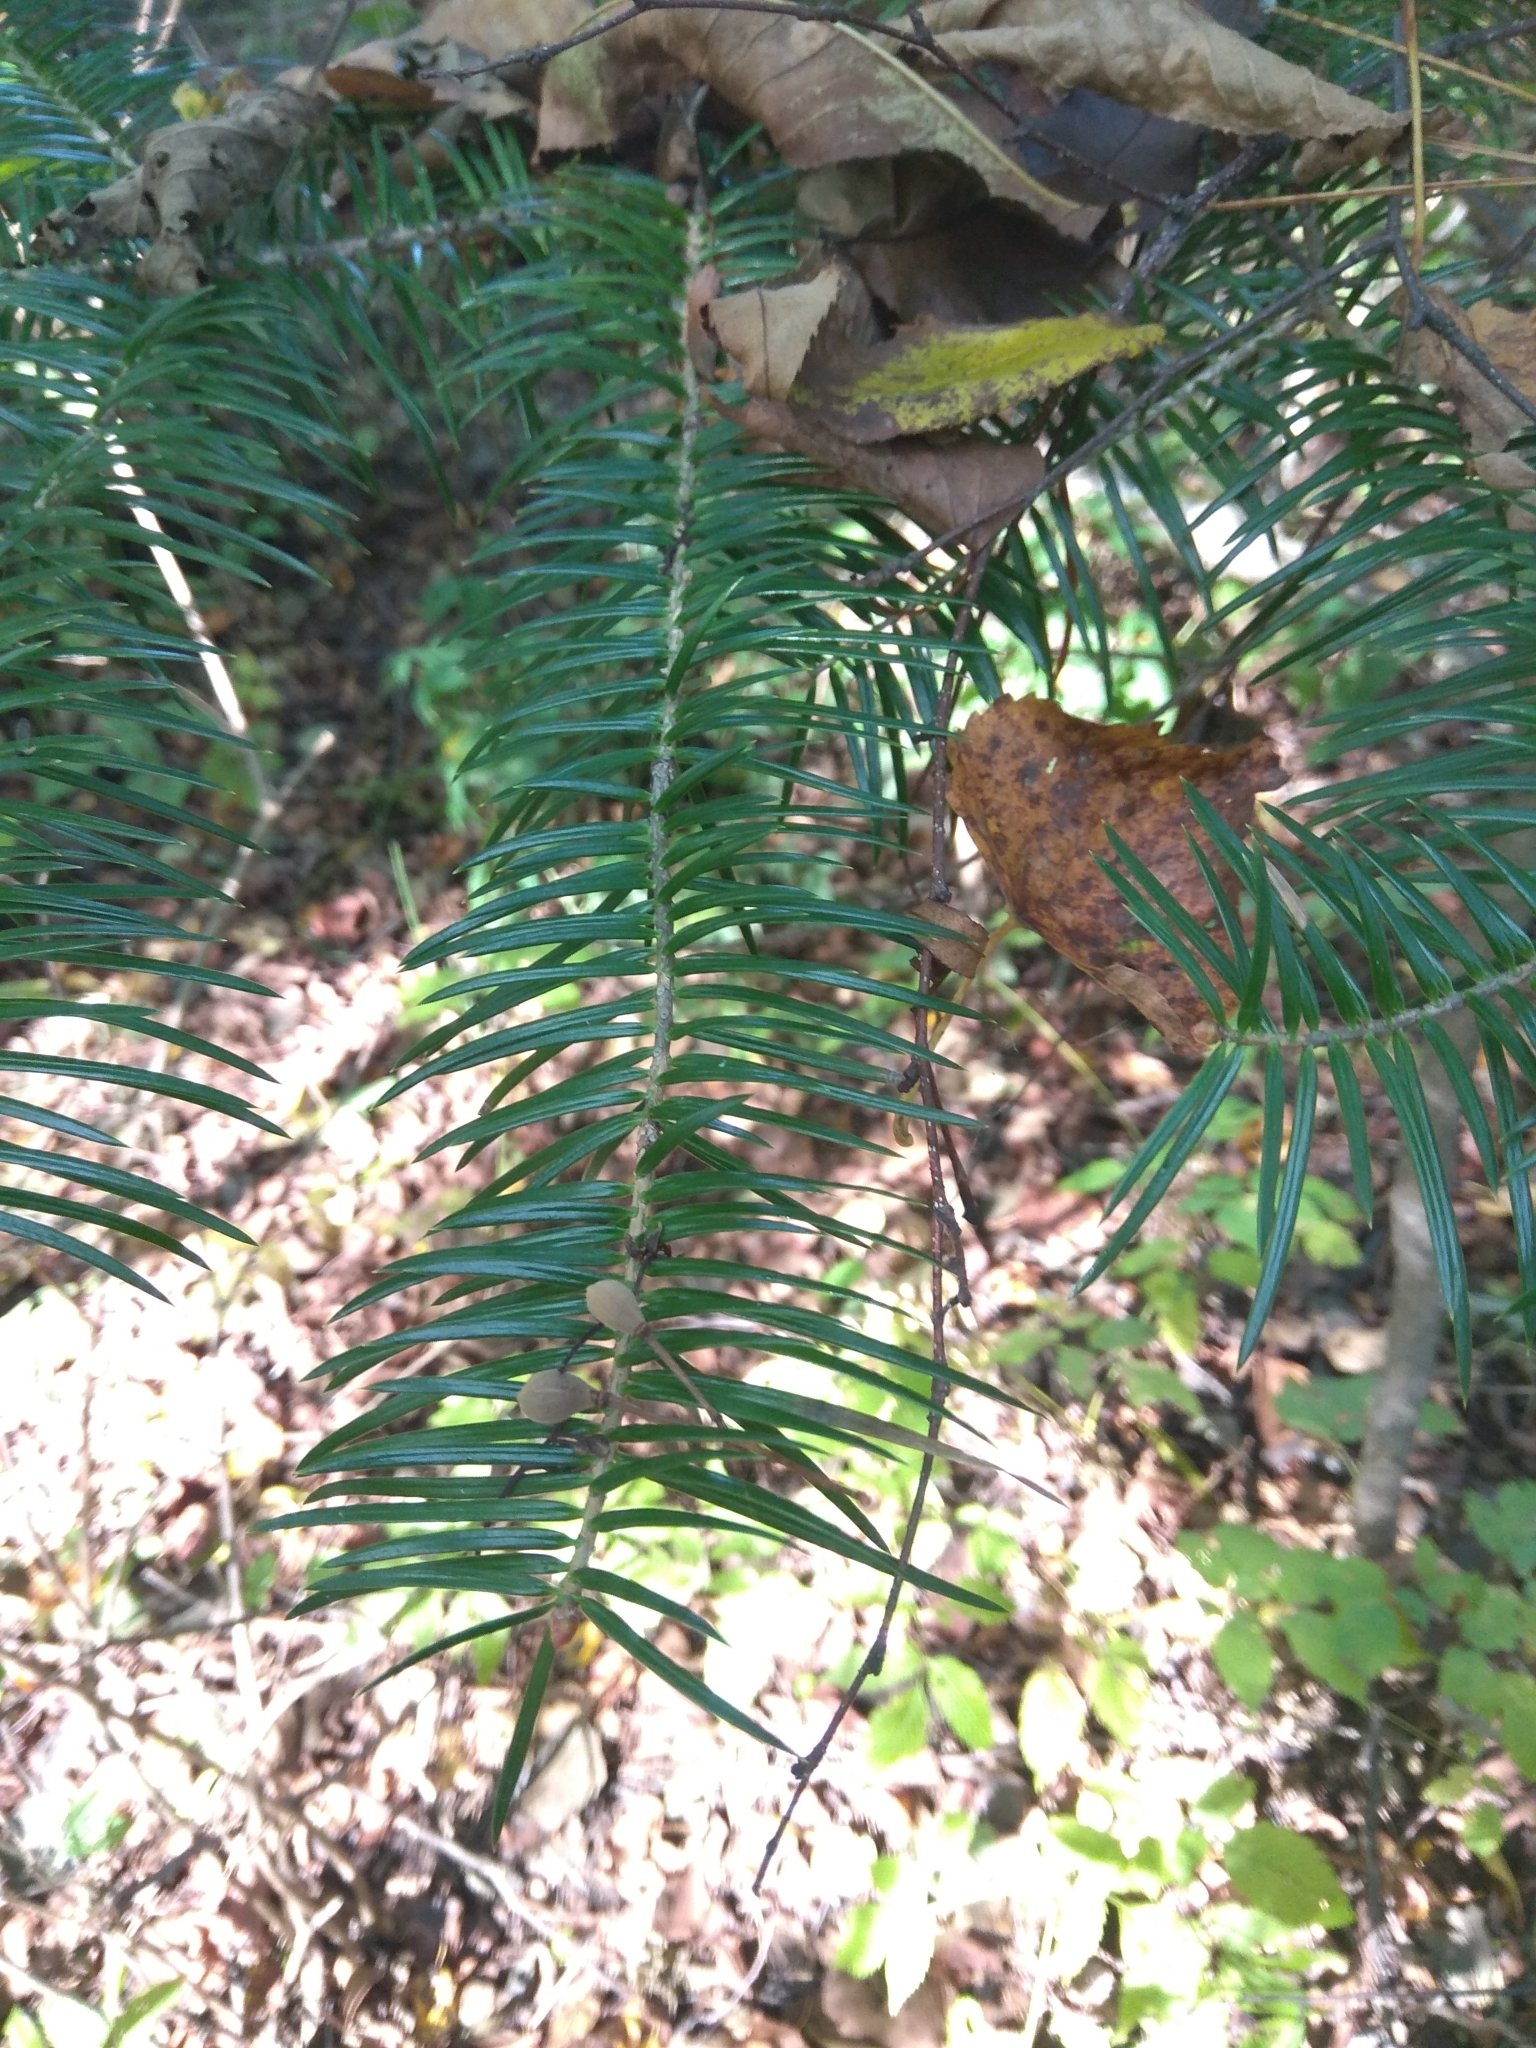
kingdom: Plantae
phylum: Tracheophyta
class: Pinopsida
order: Pinales
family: Pinaceae
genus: Abies
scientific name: Abies holophylla
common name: Manchurian fir
